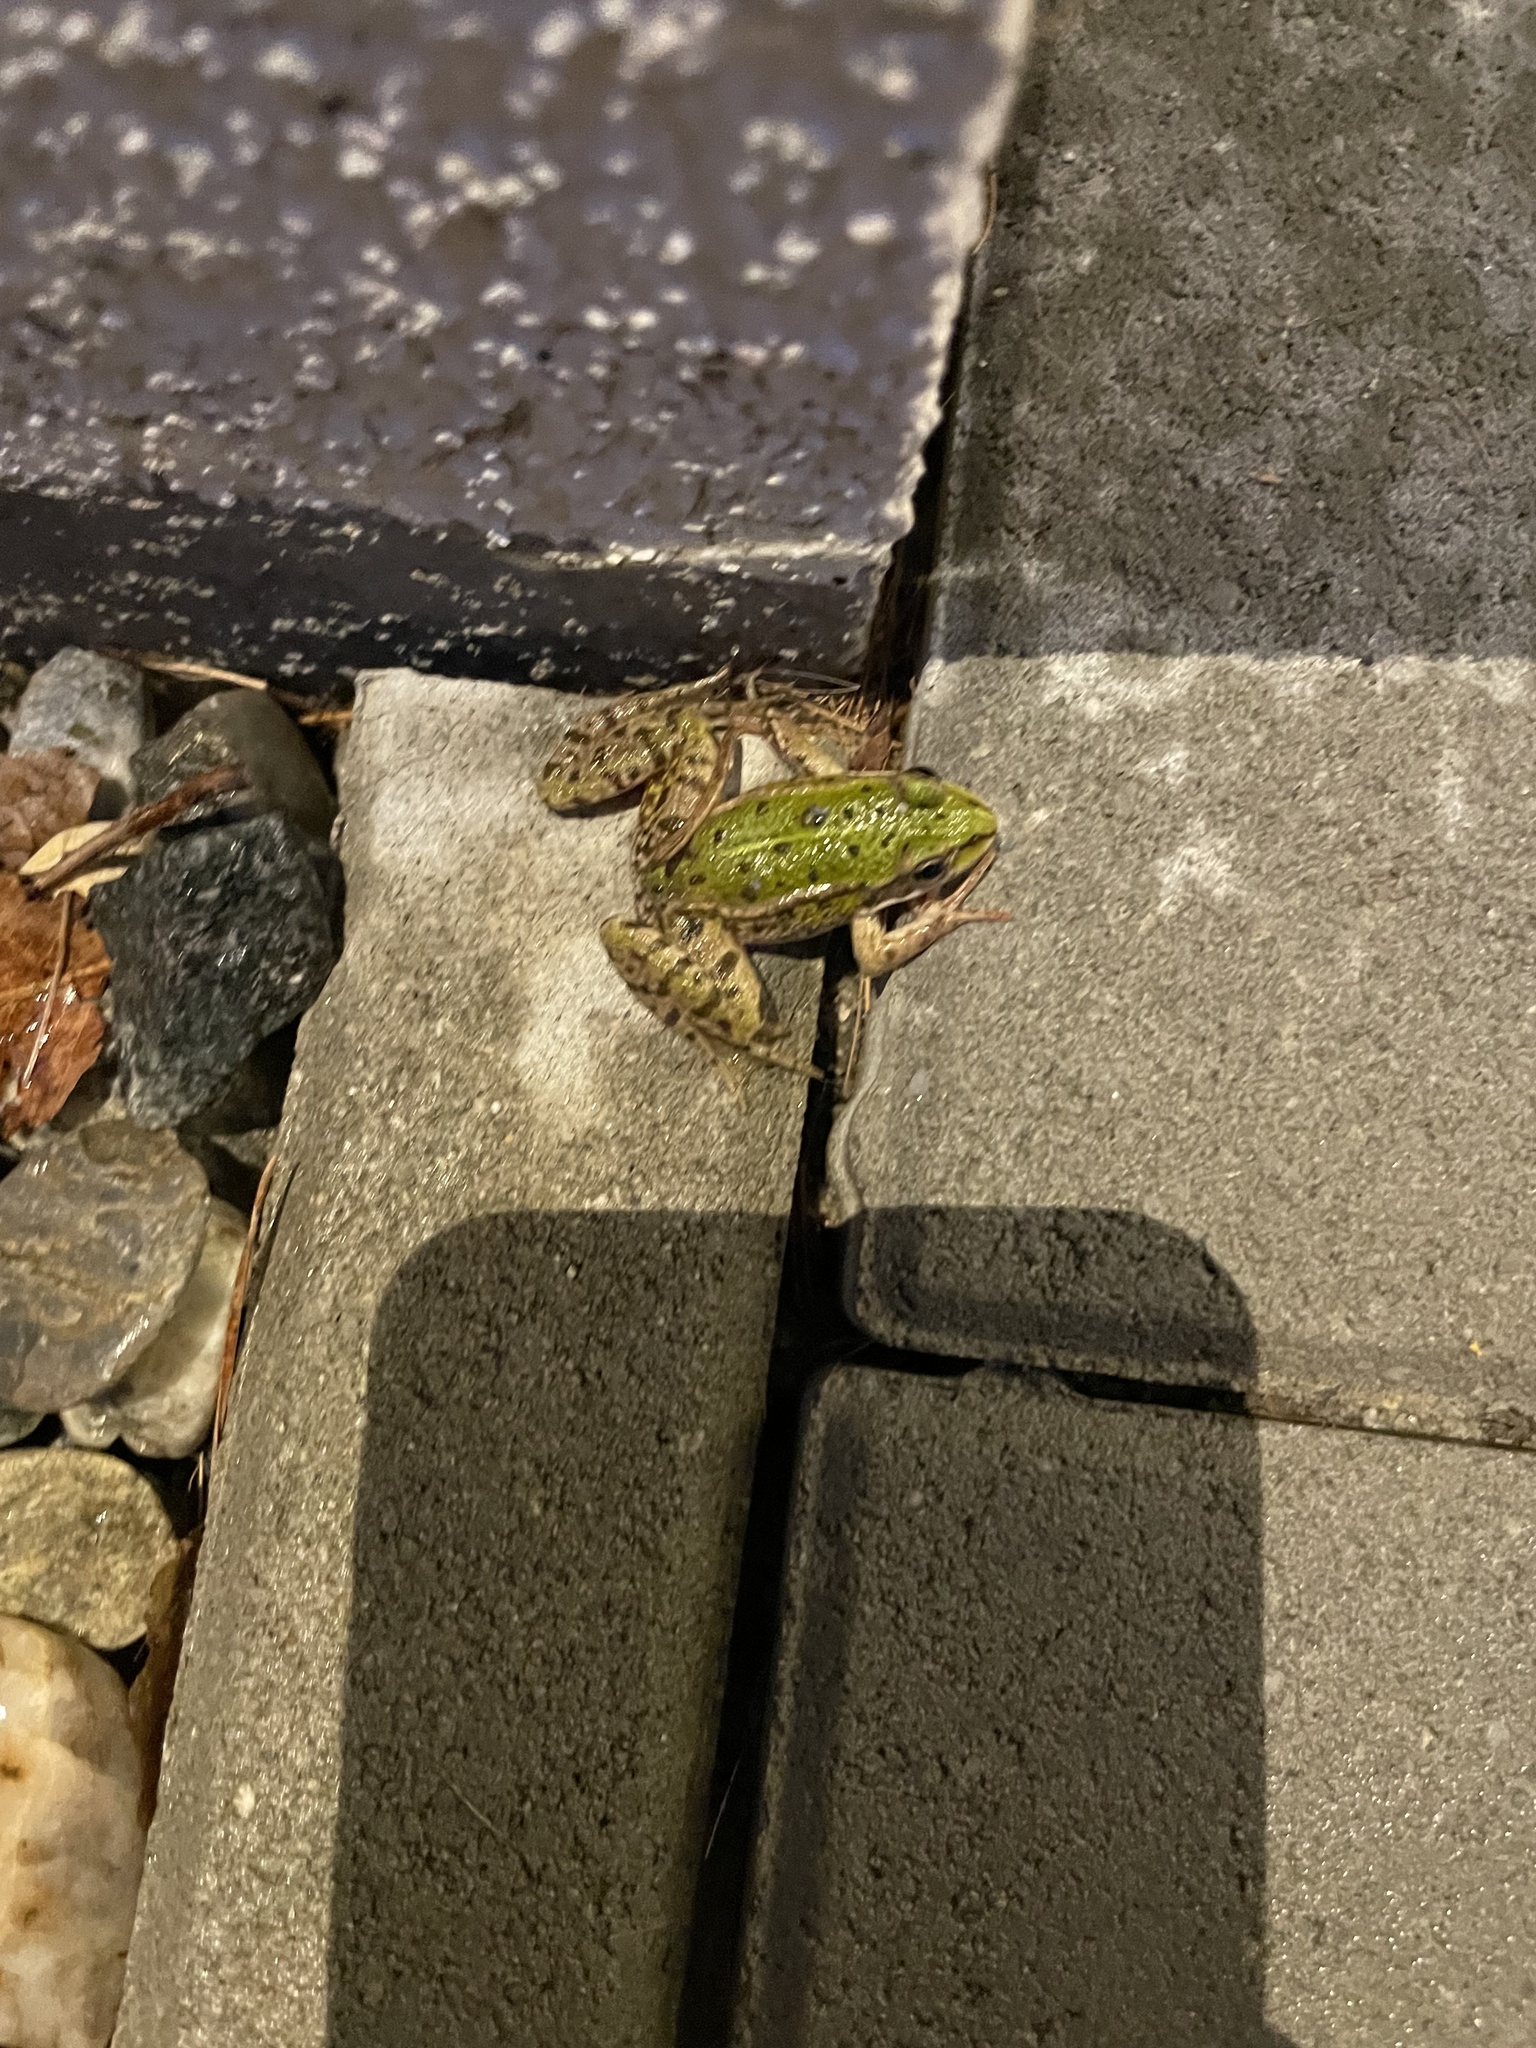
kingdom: Animalia
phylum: Chordata
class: Amphibia
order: Anura
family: Ranidae
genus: Pelophylax
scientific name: Pelophylax
